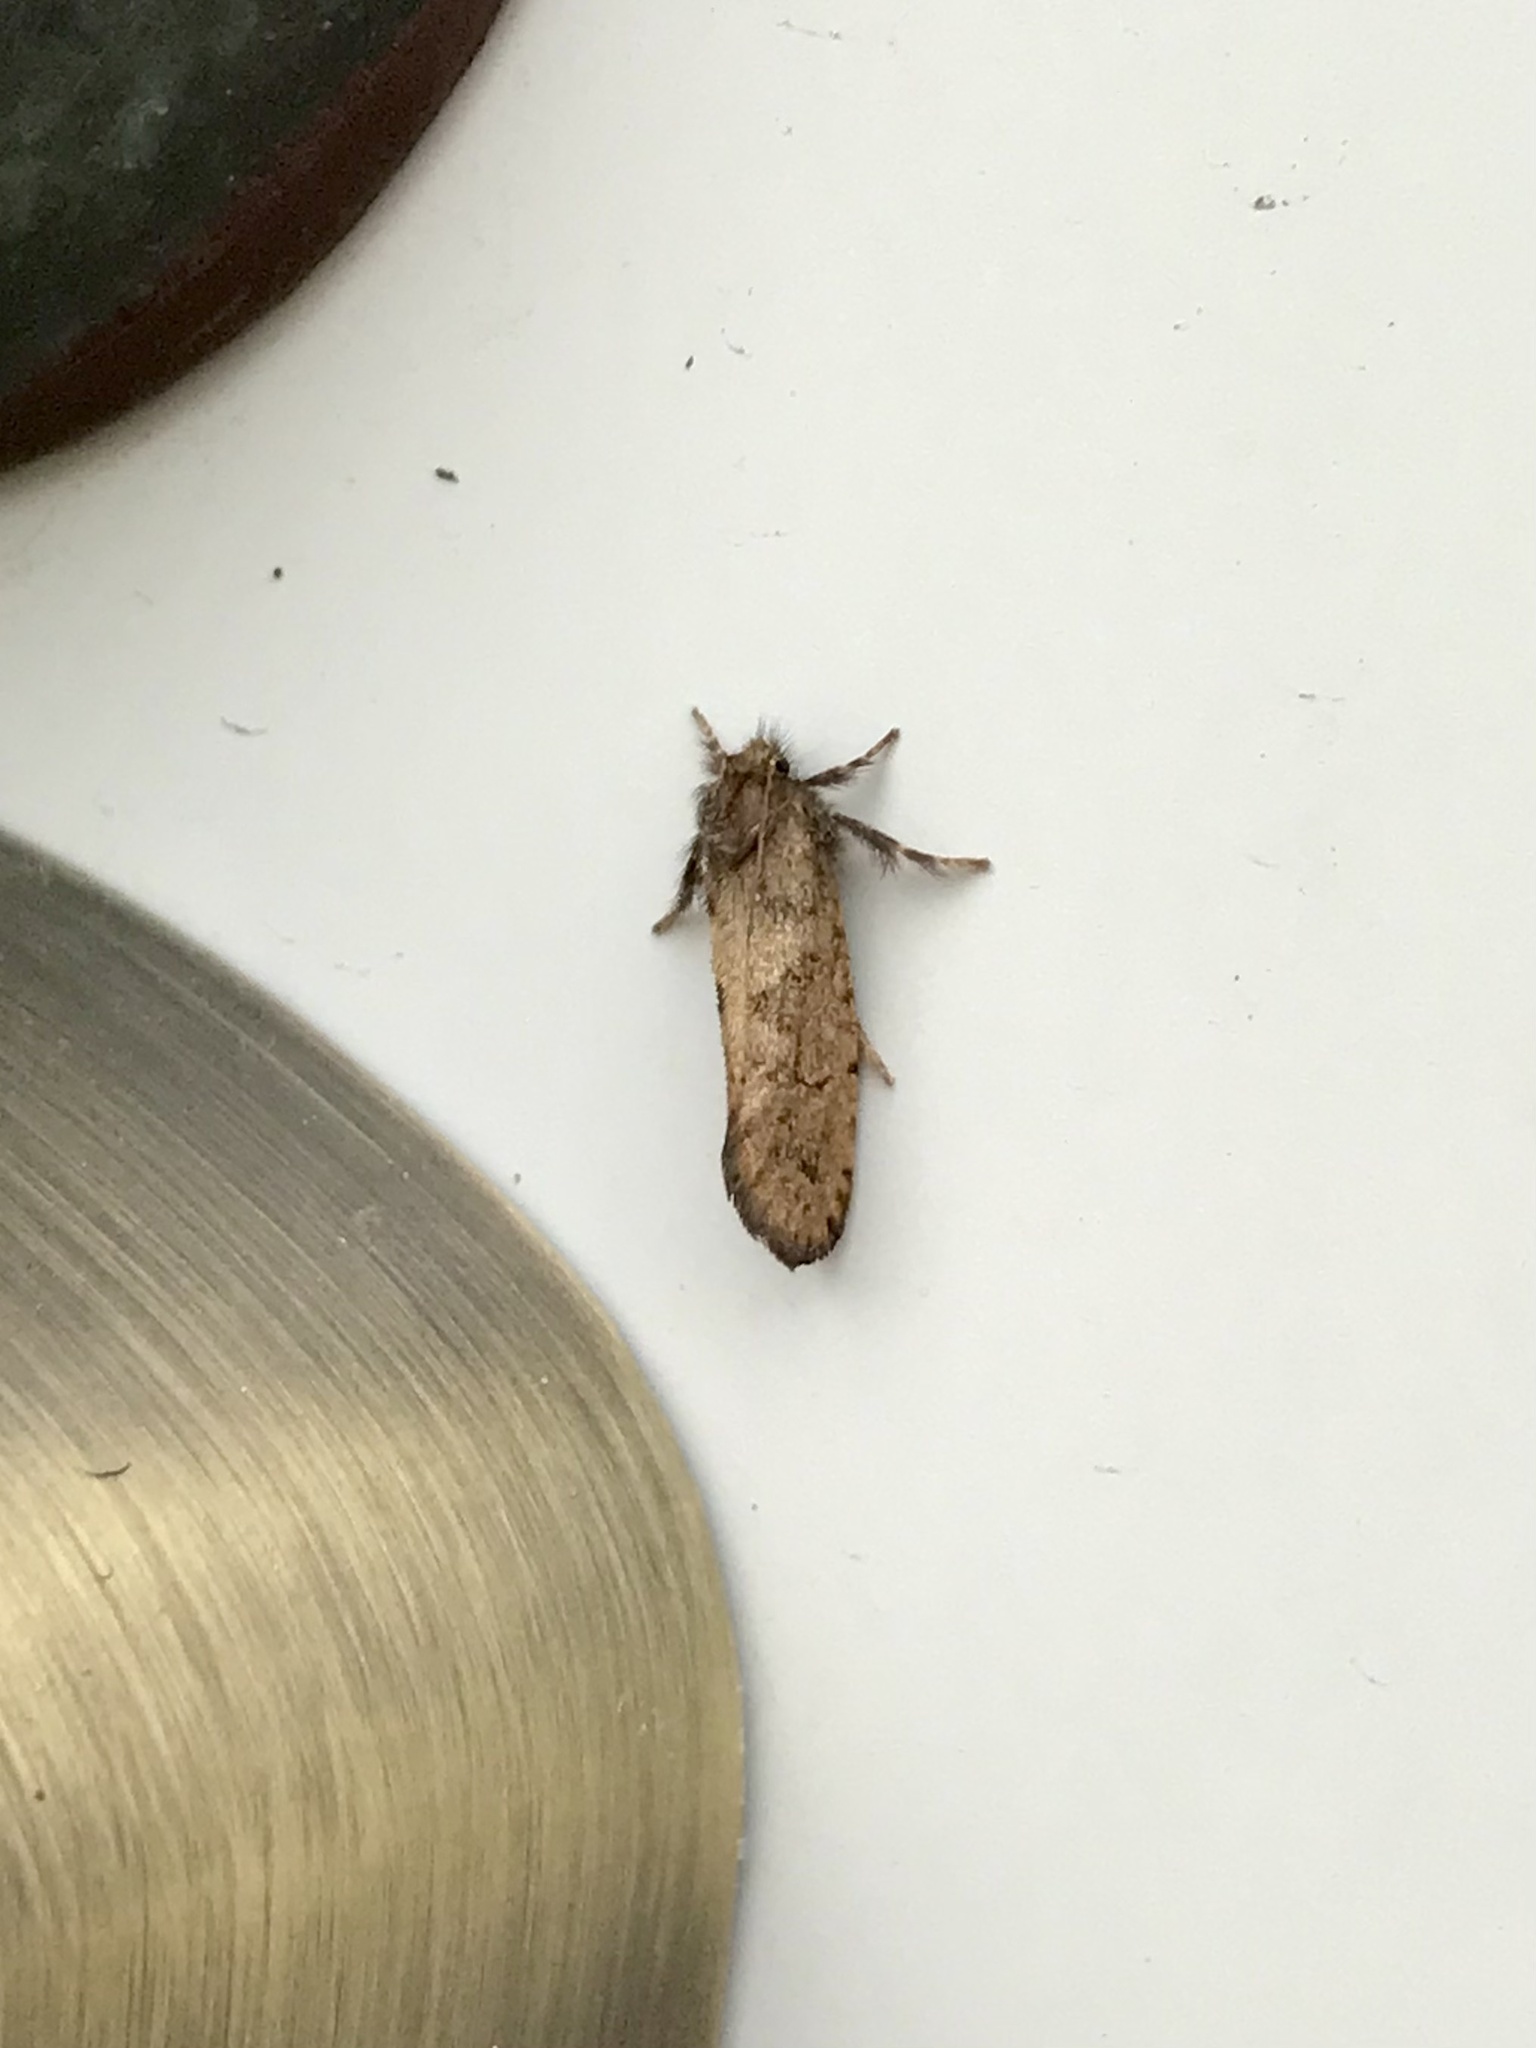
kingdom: Animalia
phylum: Arthropoda
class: Insecta
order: Lepidoptera
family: Tineidae
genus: Acrolophus
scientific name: Acrolophus mora
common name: Dark acrolophus
